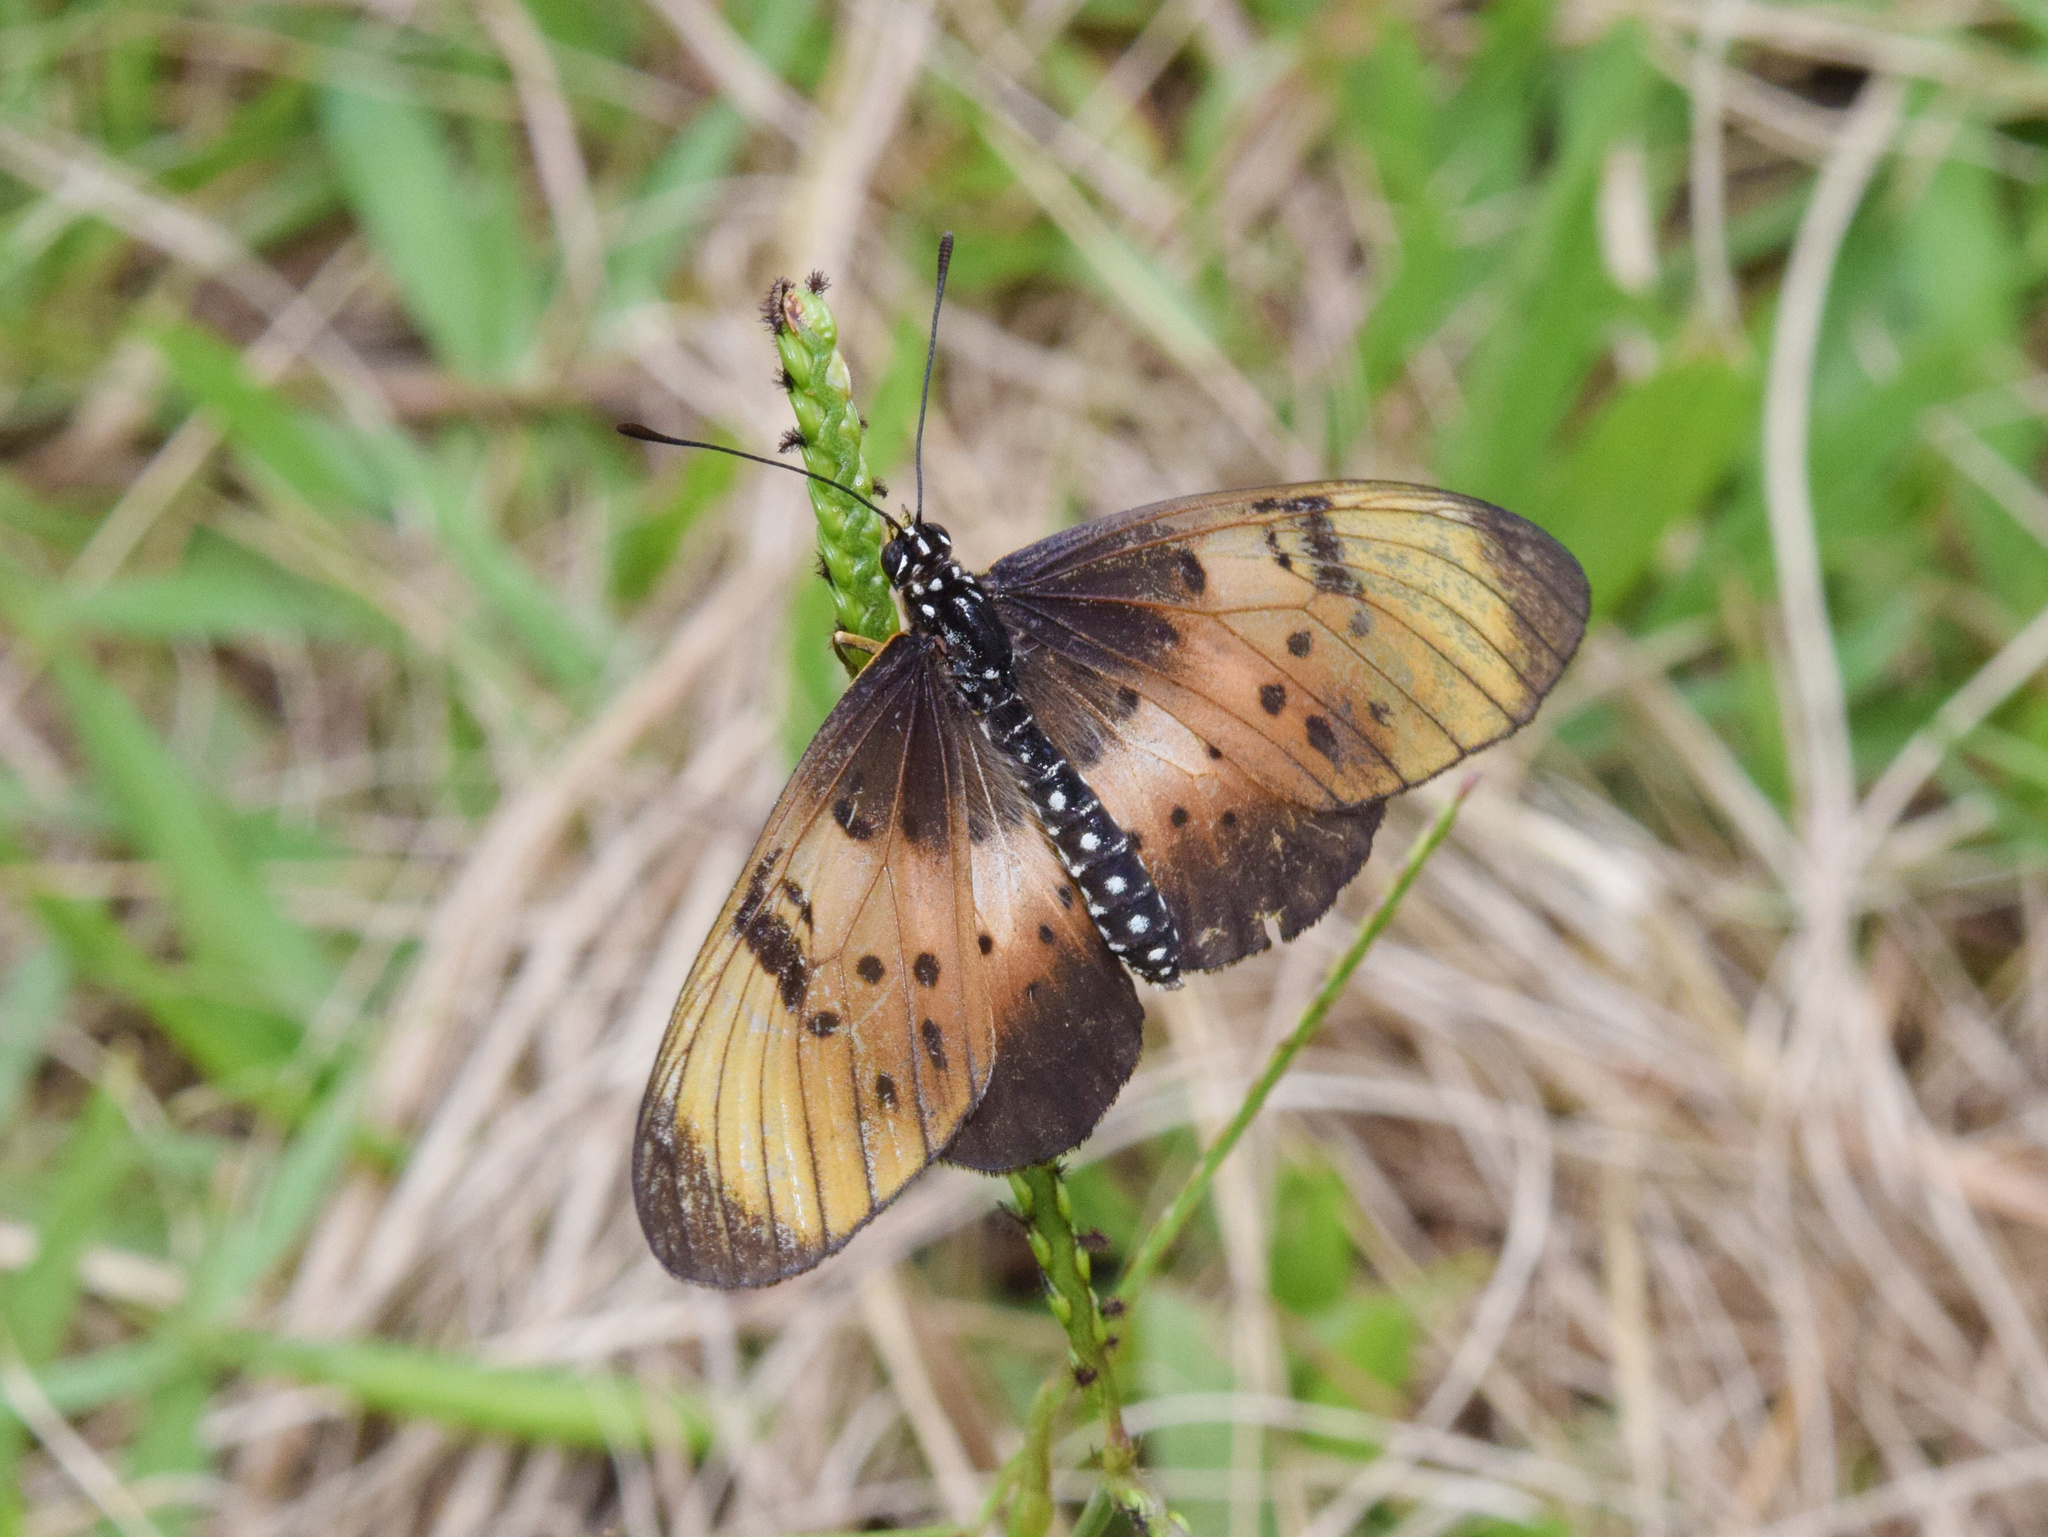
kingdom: Animalia
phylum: Arthropoda
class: Insecta
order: Lepidoptera
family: Nymphalidae
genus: Stephenia
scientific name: Stephenia
